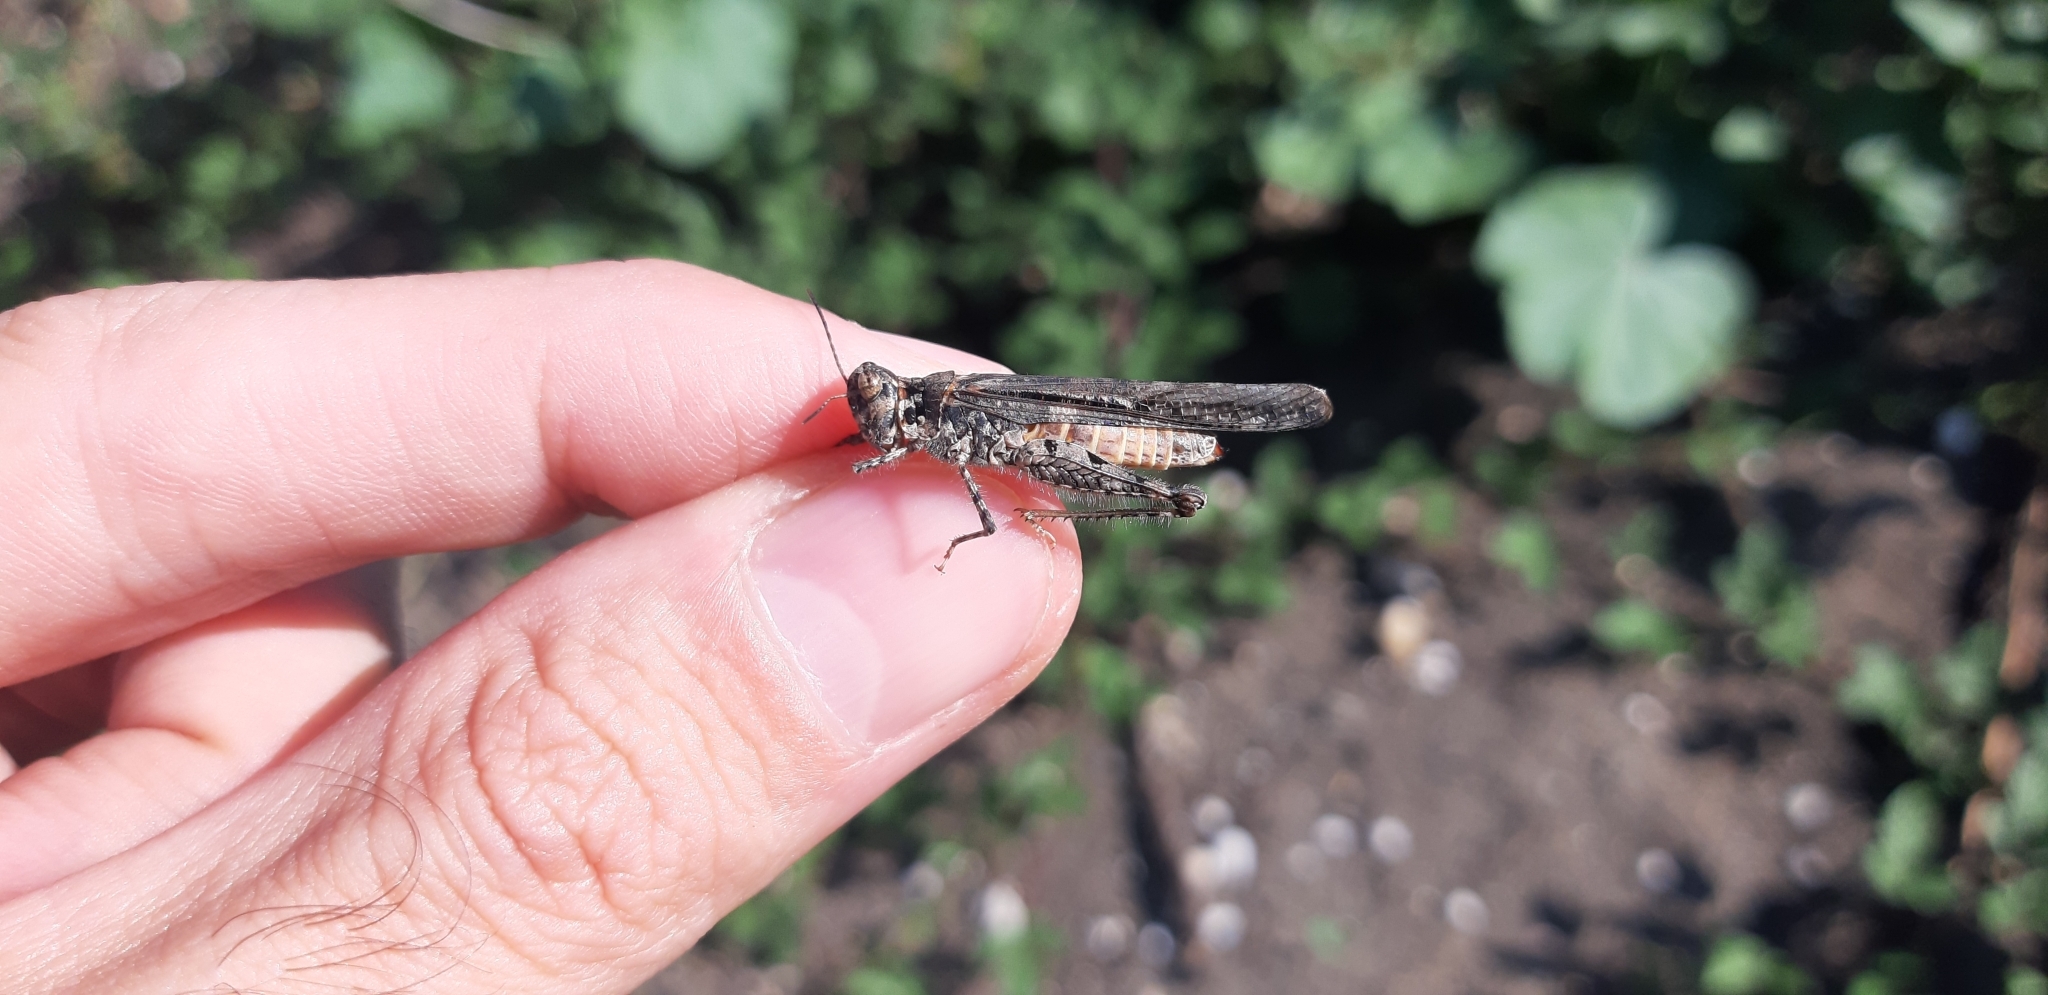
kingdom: Animalia
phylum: Arthropoda
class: Insecta
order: Orthoptera
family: Acrididae
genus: Acrotylus
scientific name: Acrotylus patruelis
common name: Slender burrowing grasshopper
